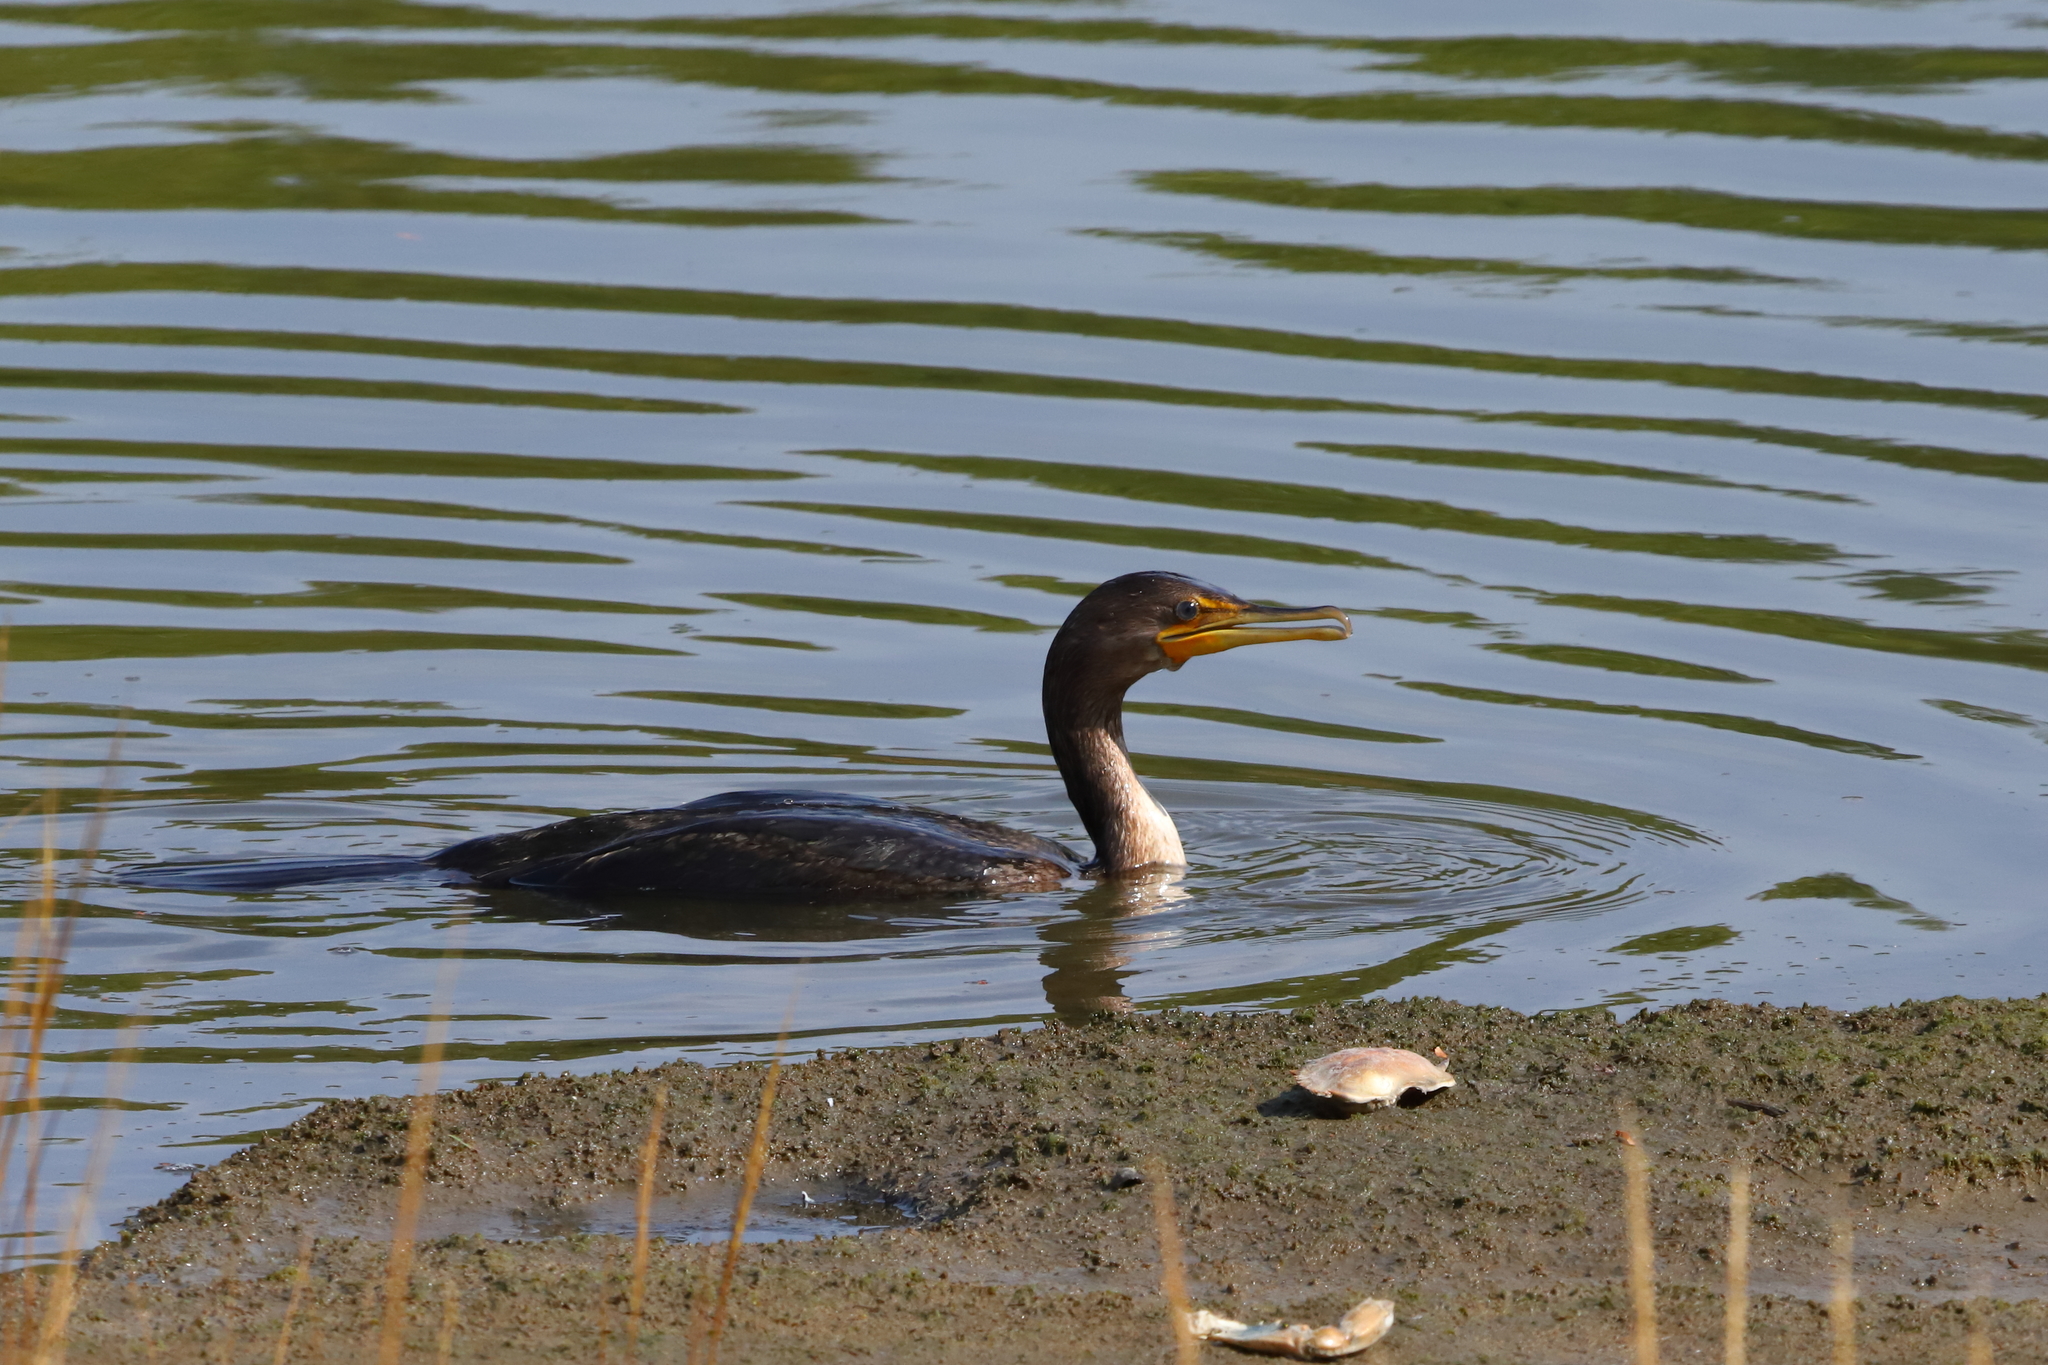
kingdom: Animalia
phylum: Chordata
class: Aves
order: Suliformes
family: Phalacrocoracidae
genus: Phalacrocorax
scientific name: Phalacrocorax auritus
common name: Double-crested cormorant
